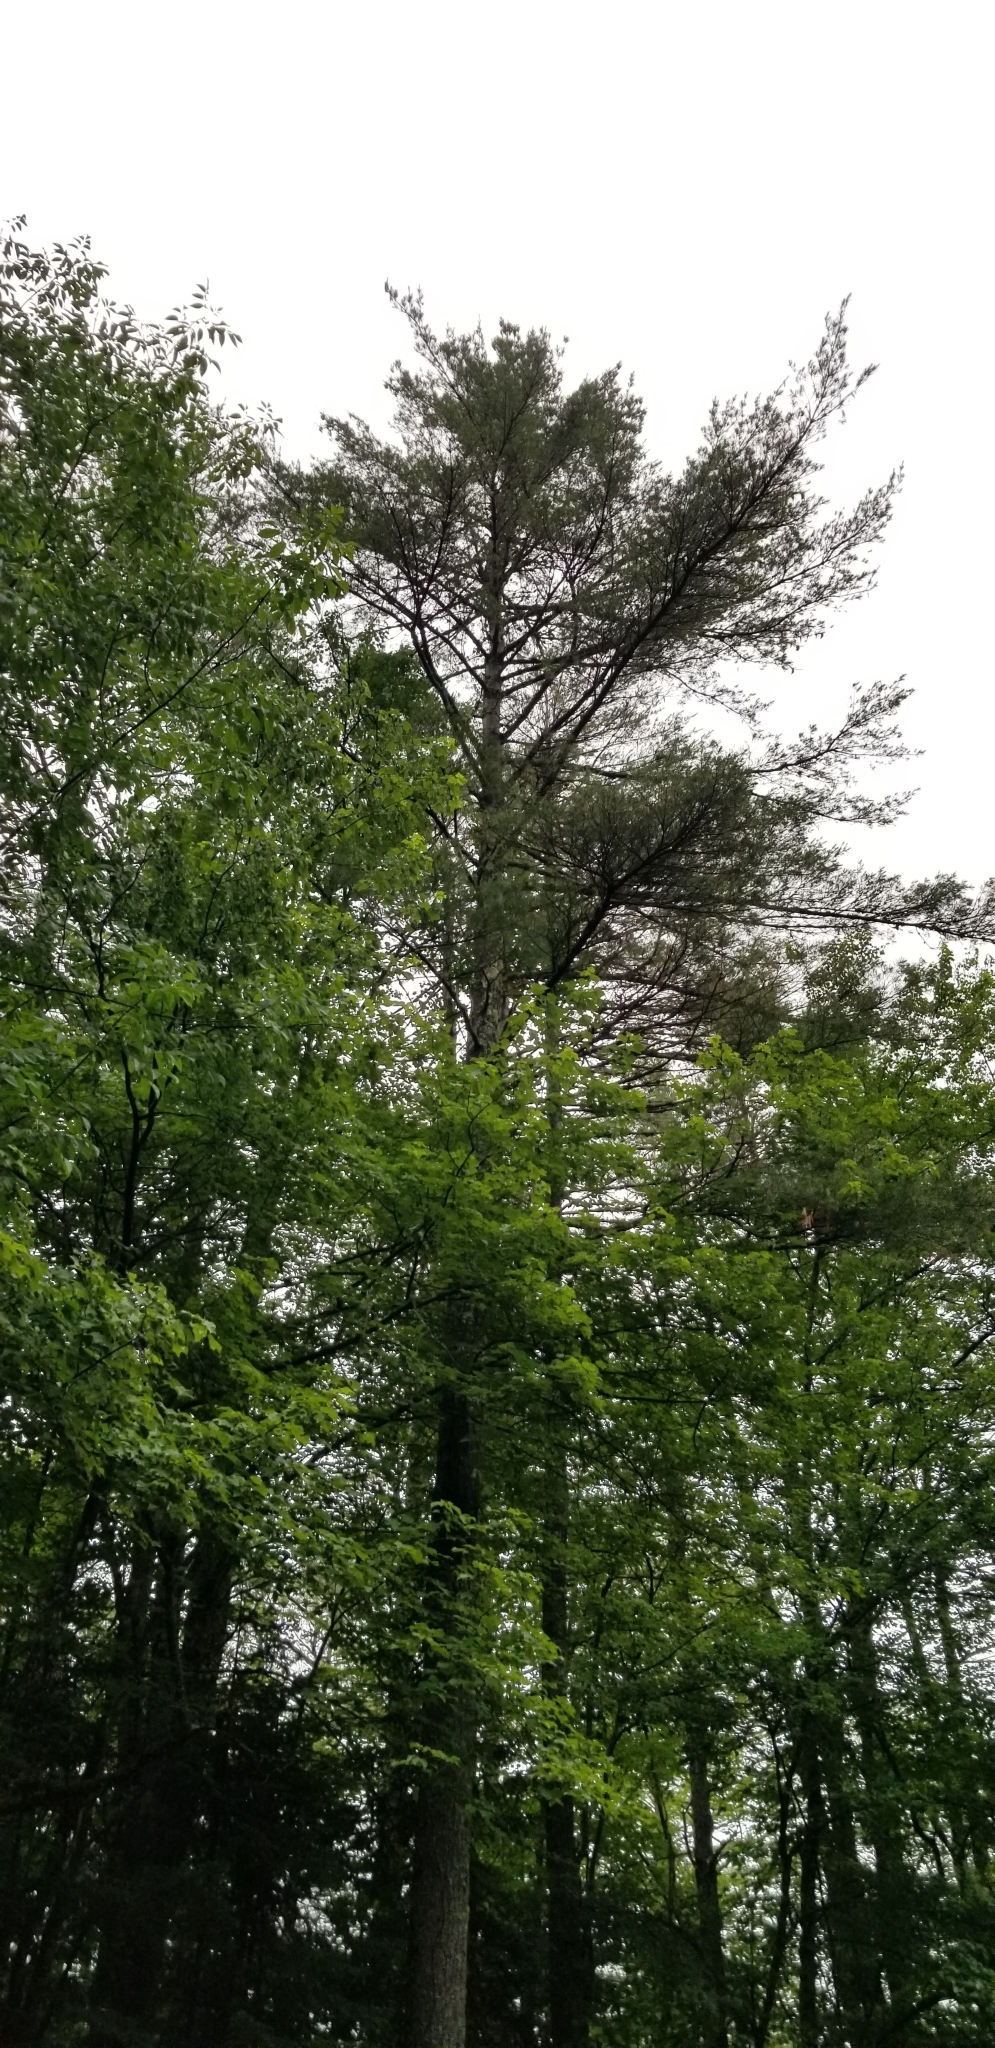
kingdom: Plantae
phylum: Tracheophyta
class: Pinopsida
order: Pinales
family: Pinaceae
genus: Pinus
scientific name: Pinus strobus
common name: Weymouth pine
